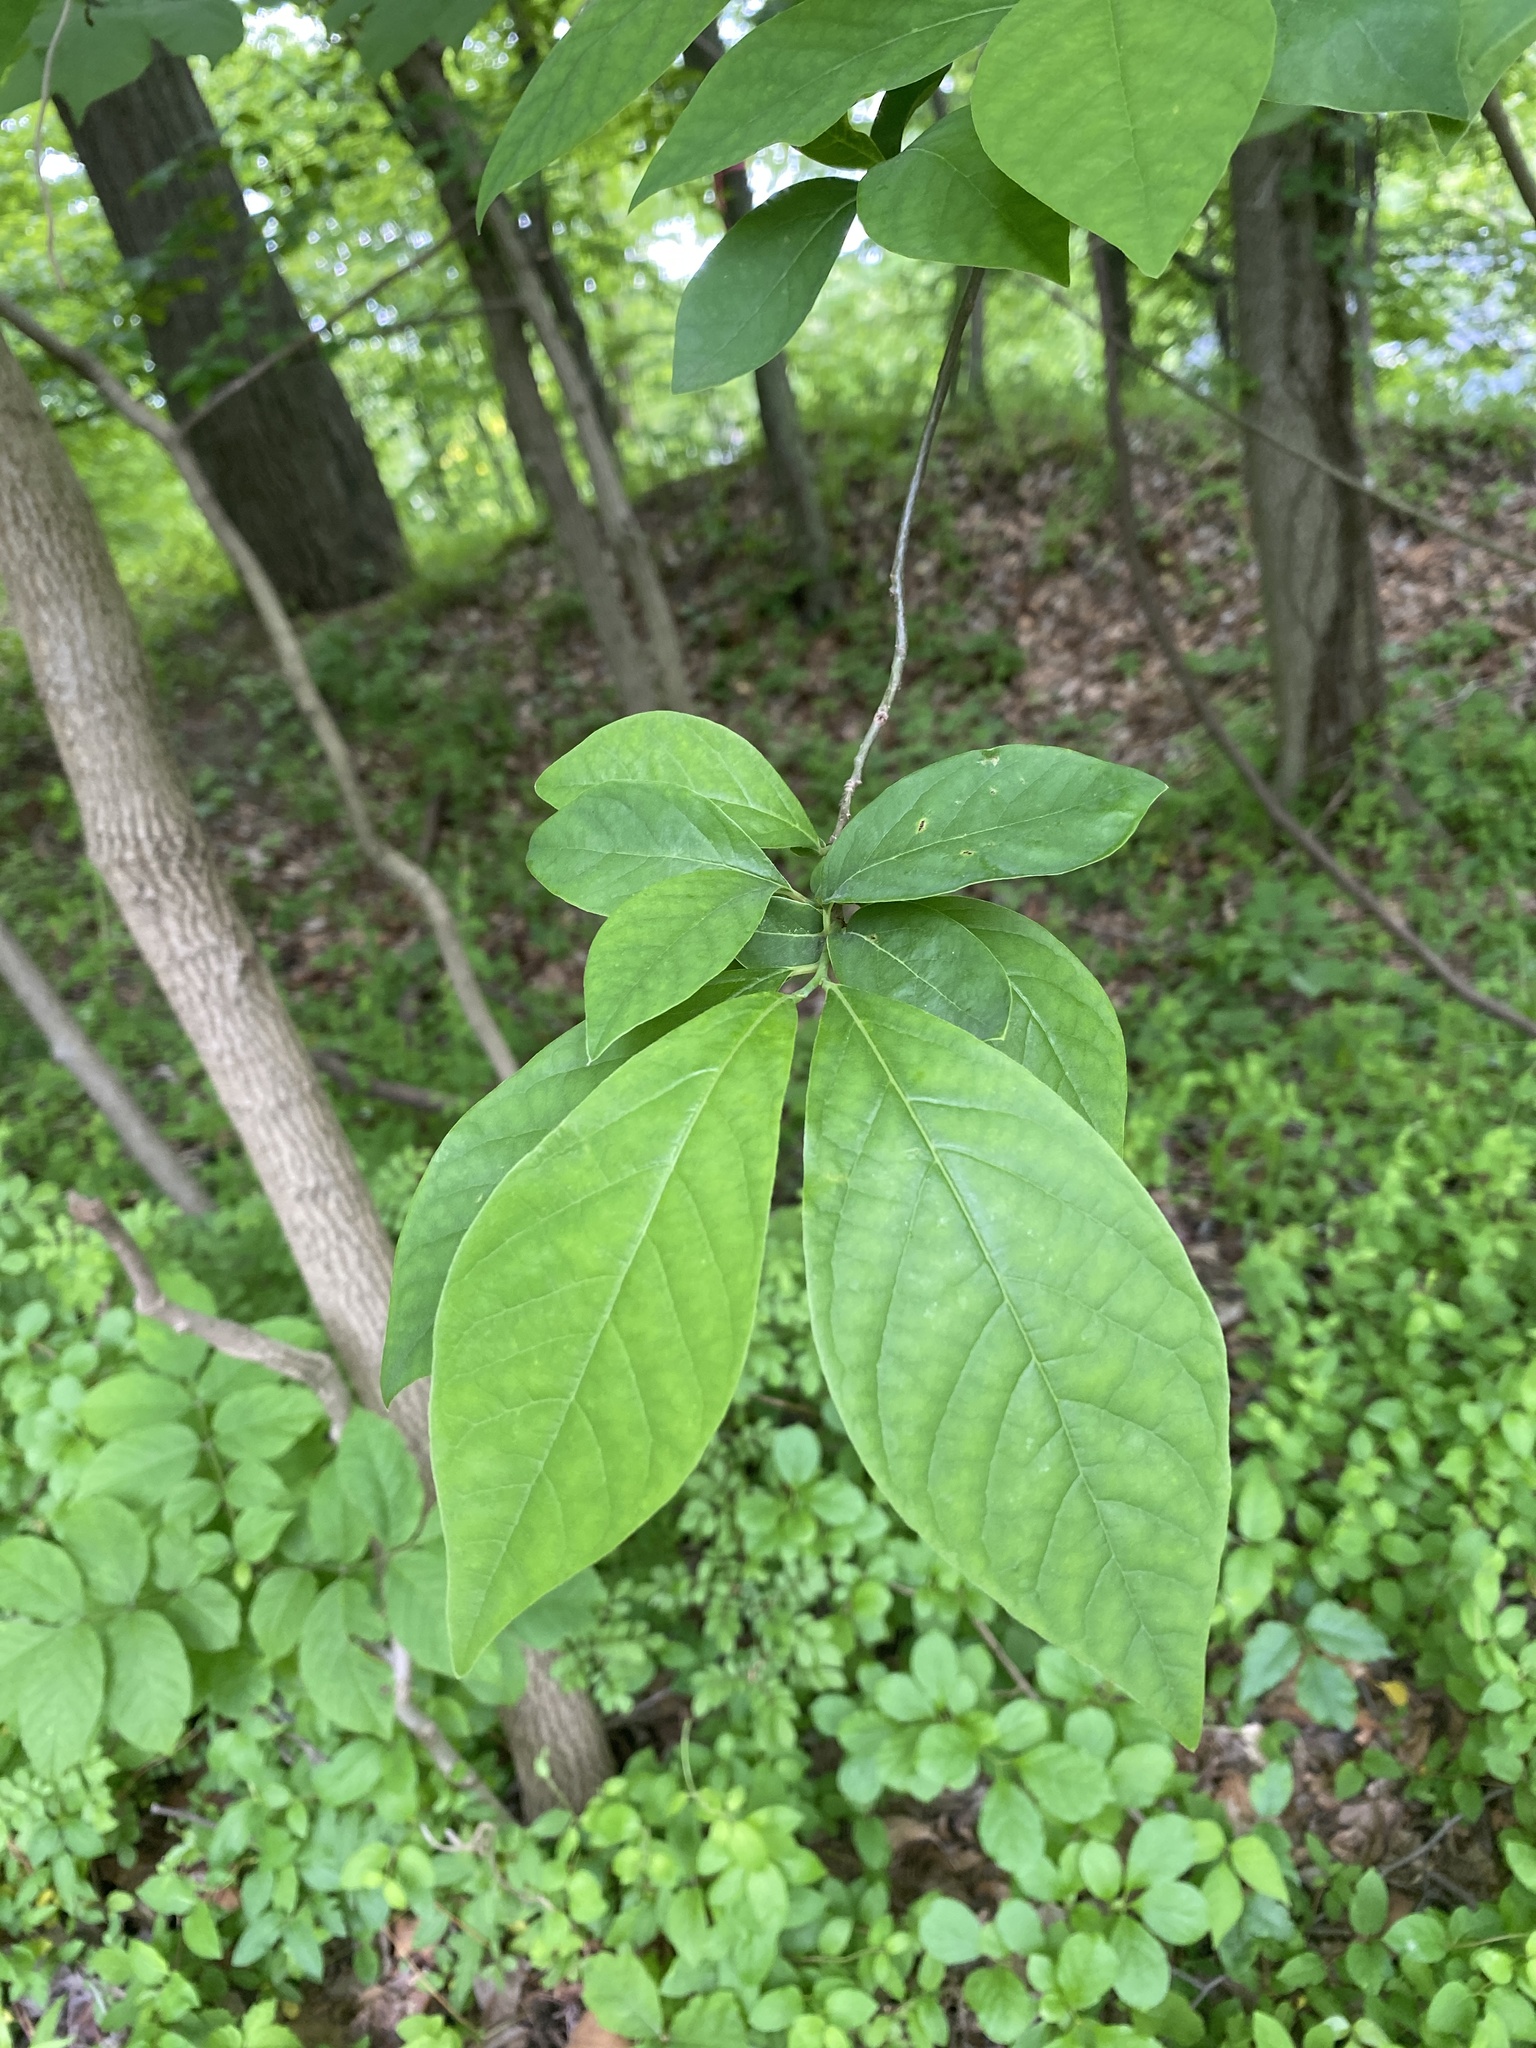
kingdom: Plantae
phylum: Tracheophyta
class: Magnoliopsida
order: Laurales
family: Lauraceae
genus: Lindera
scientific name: Lindera benzoin
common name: Spicebush
